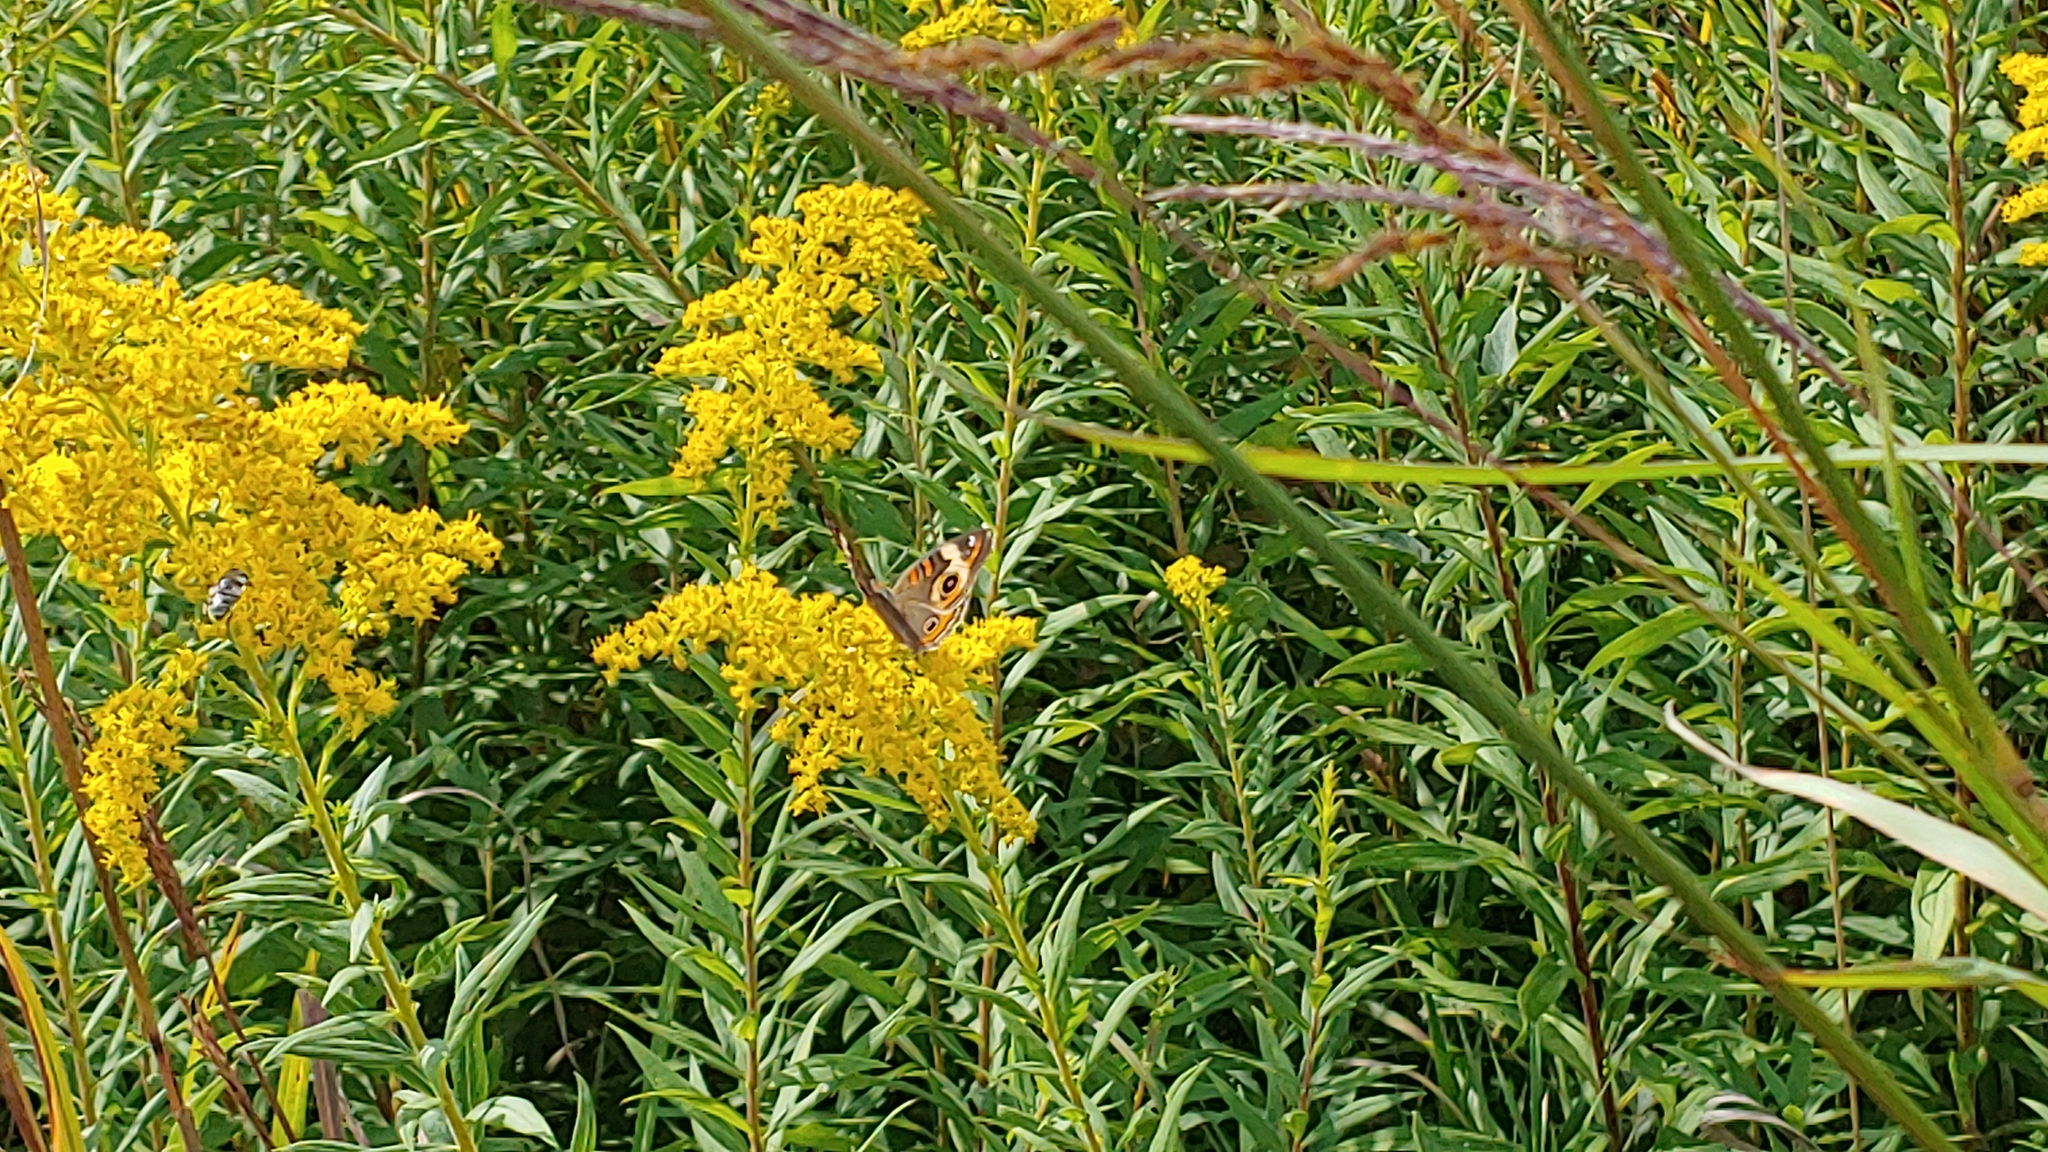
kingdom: Animalia
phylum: Arthropoda
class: Insecta
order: Lepidoptera
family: Nymphalidae
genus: Junonia
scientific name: Junonia coenia
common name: Common buckeye
